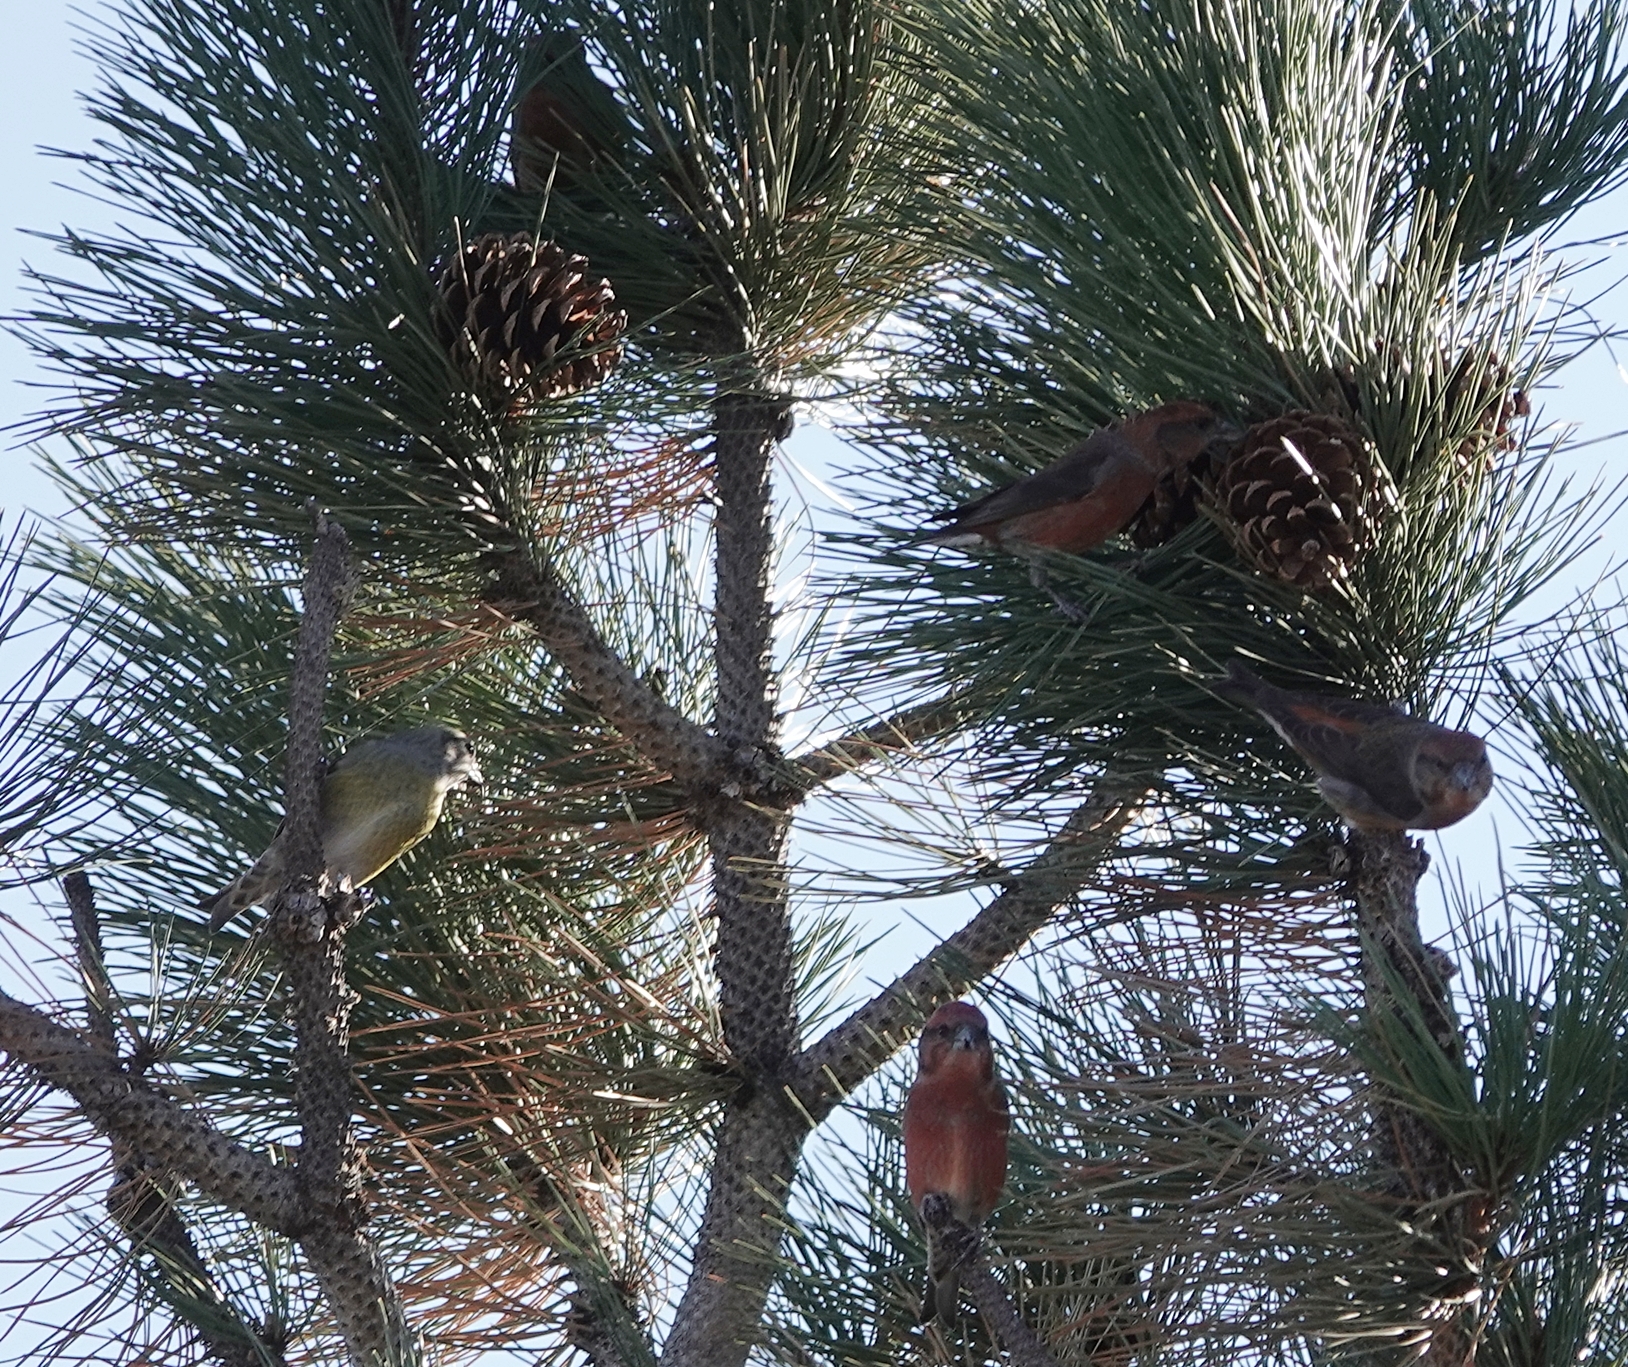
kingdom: Animalia
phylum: Chordata
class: Aves
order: Passeriformes
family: Fringillidae
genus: Loxia
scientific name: Loxia curvirostra
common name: Red crossbill
